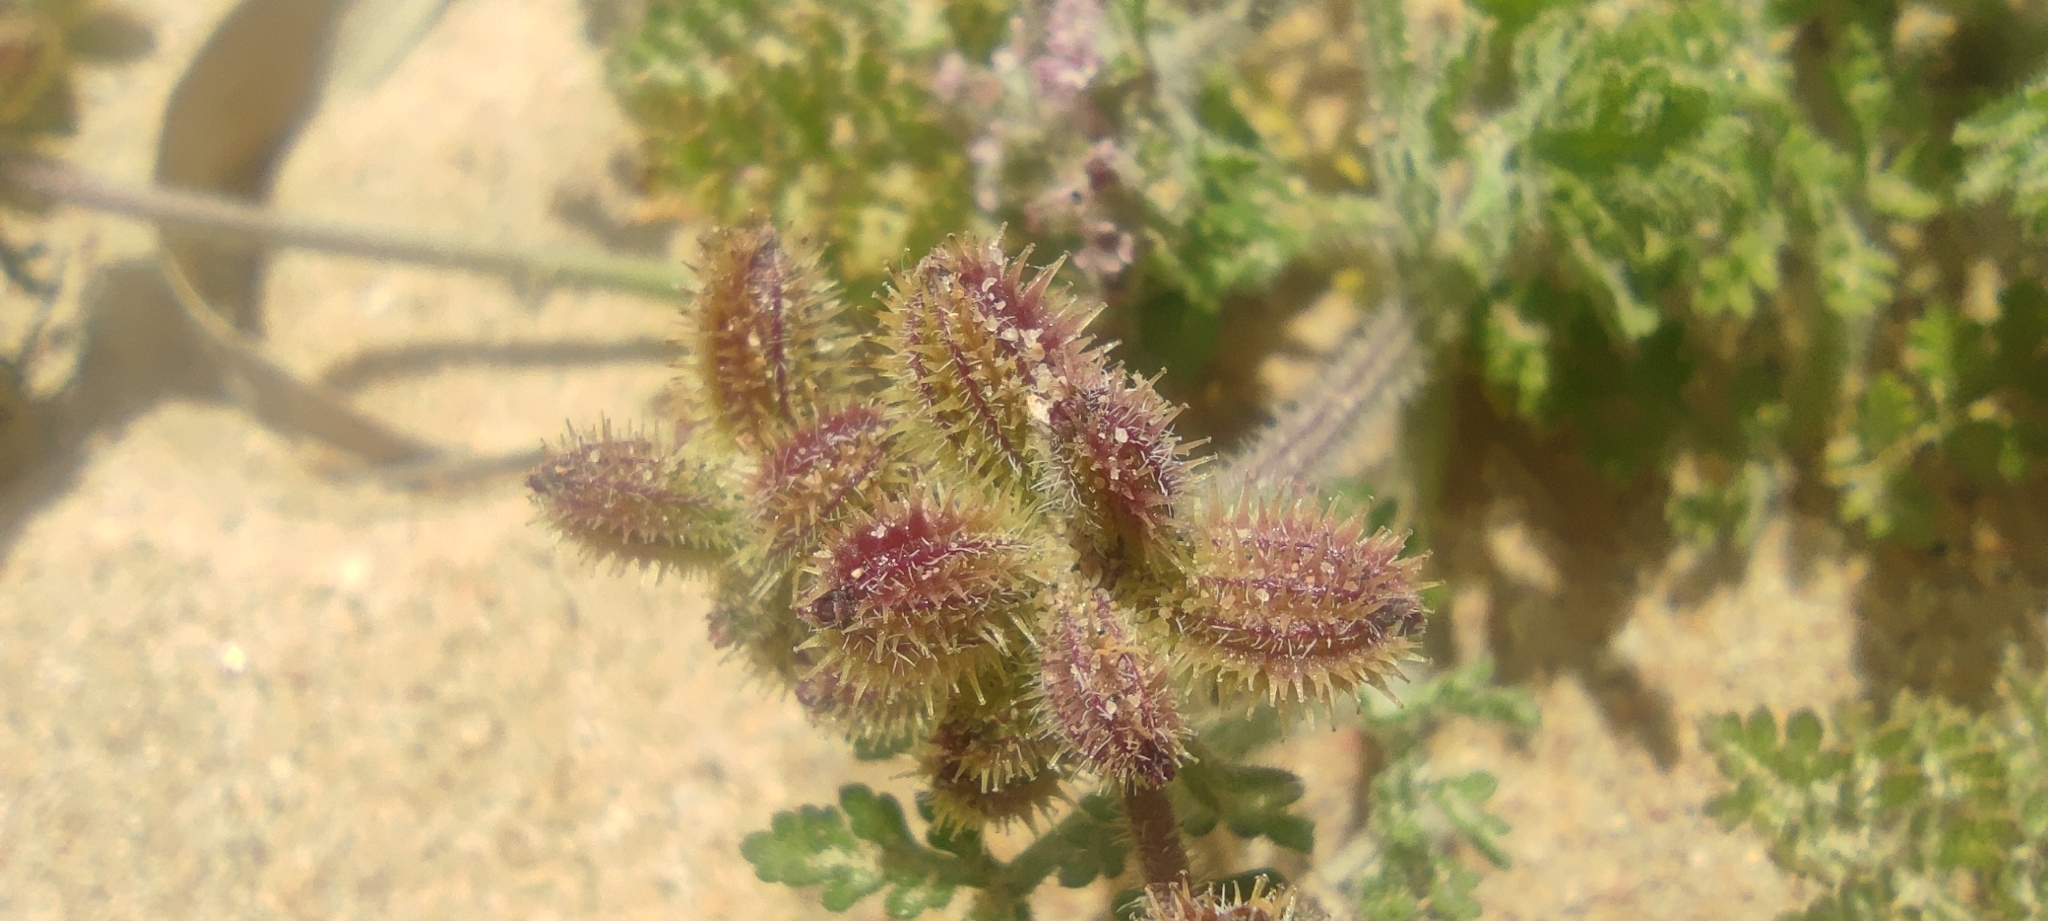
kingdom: Plantae
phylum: Tracheophyta
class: Magnoliopsida
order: Apiales
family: Apiaceae
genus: Daucus
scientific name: Daucus minusculus
